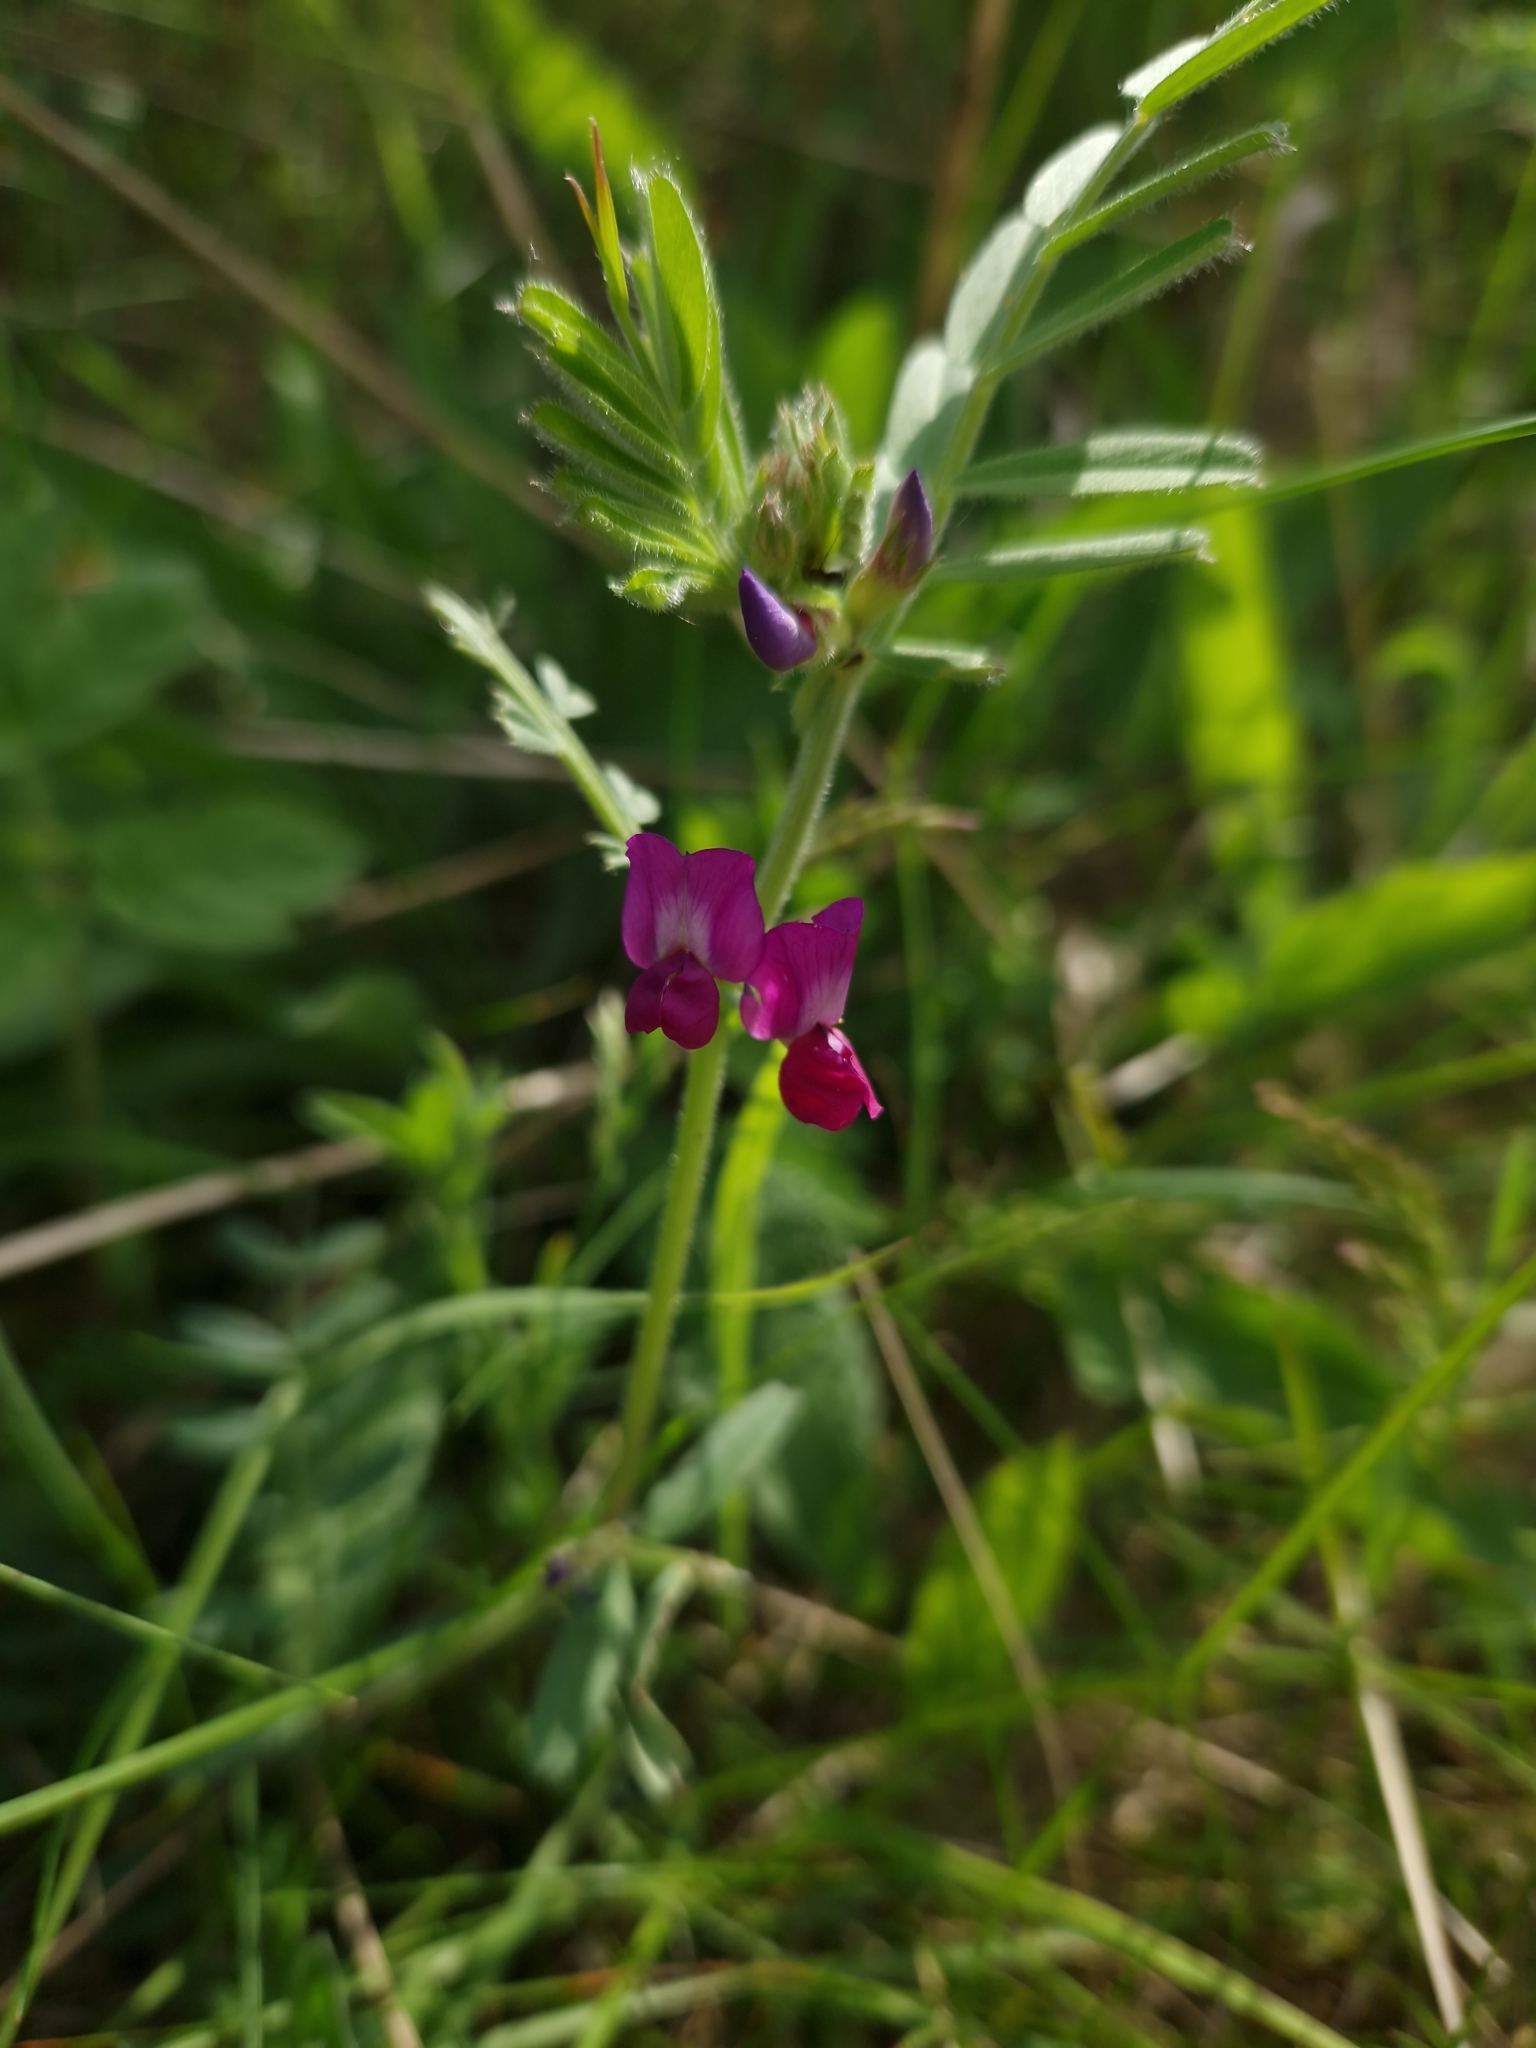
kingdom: Plantae
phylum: Tracheophyta
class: Magnoliopsida
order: Fabales
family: Fabaceae
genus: Vicia
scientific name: Vicia sativa
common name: Garden vetch
